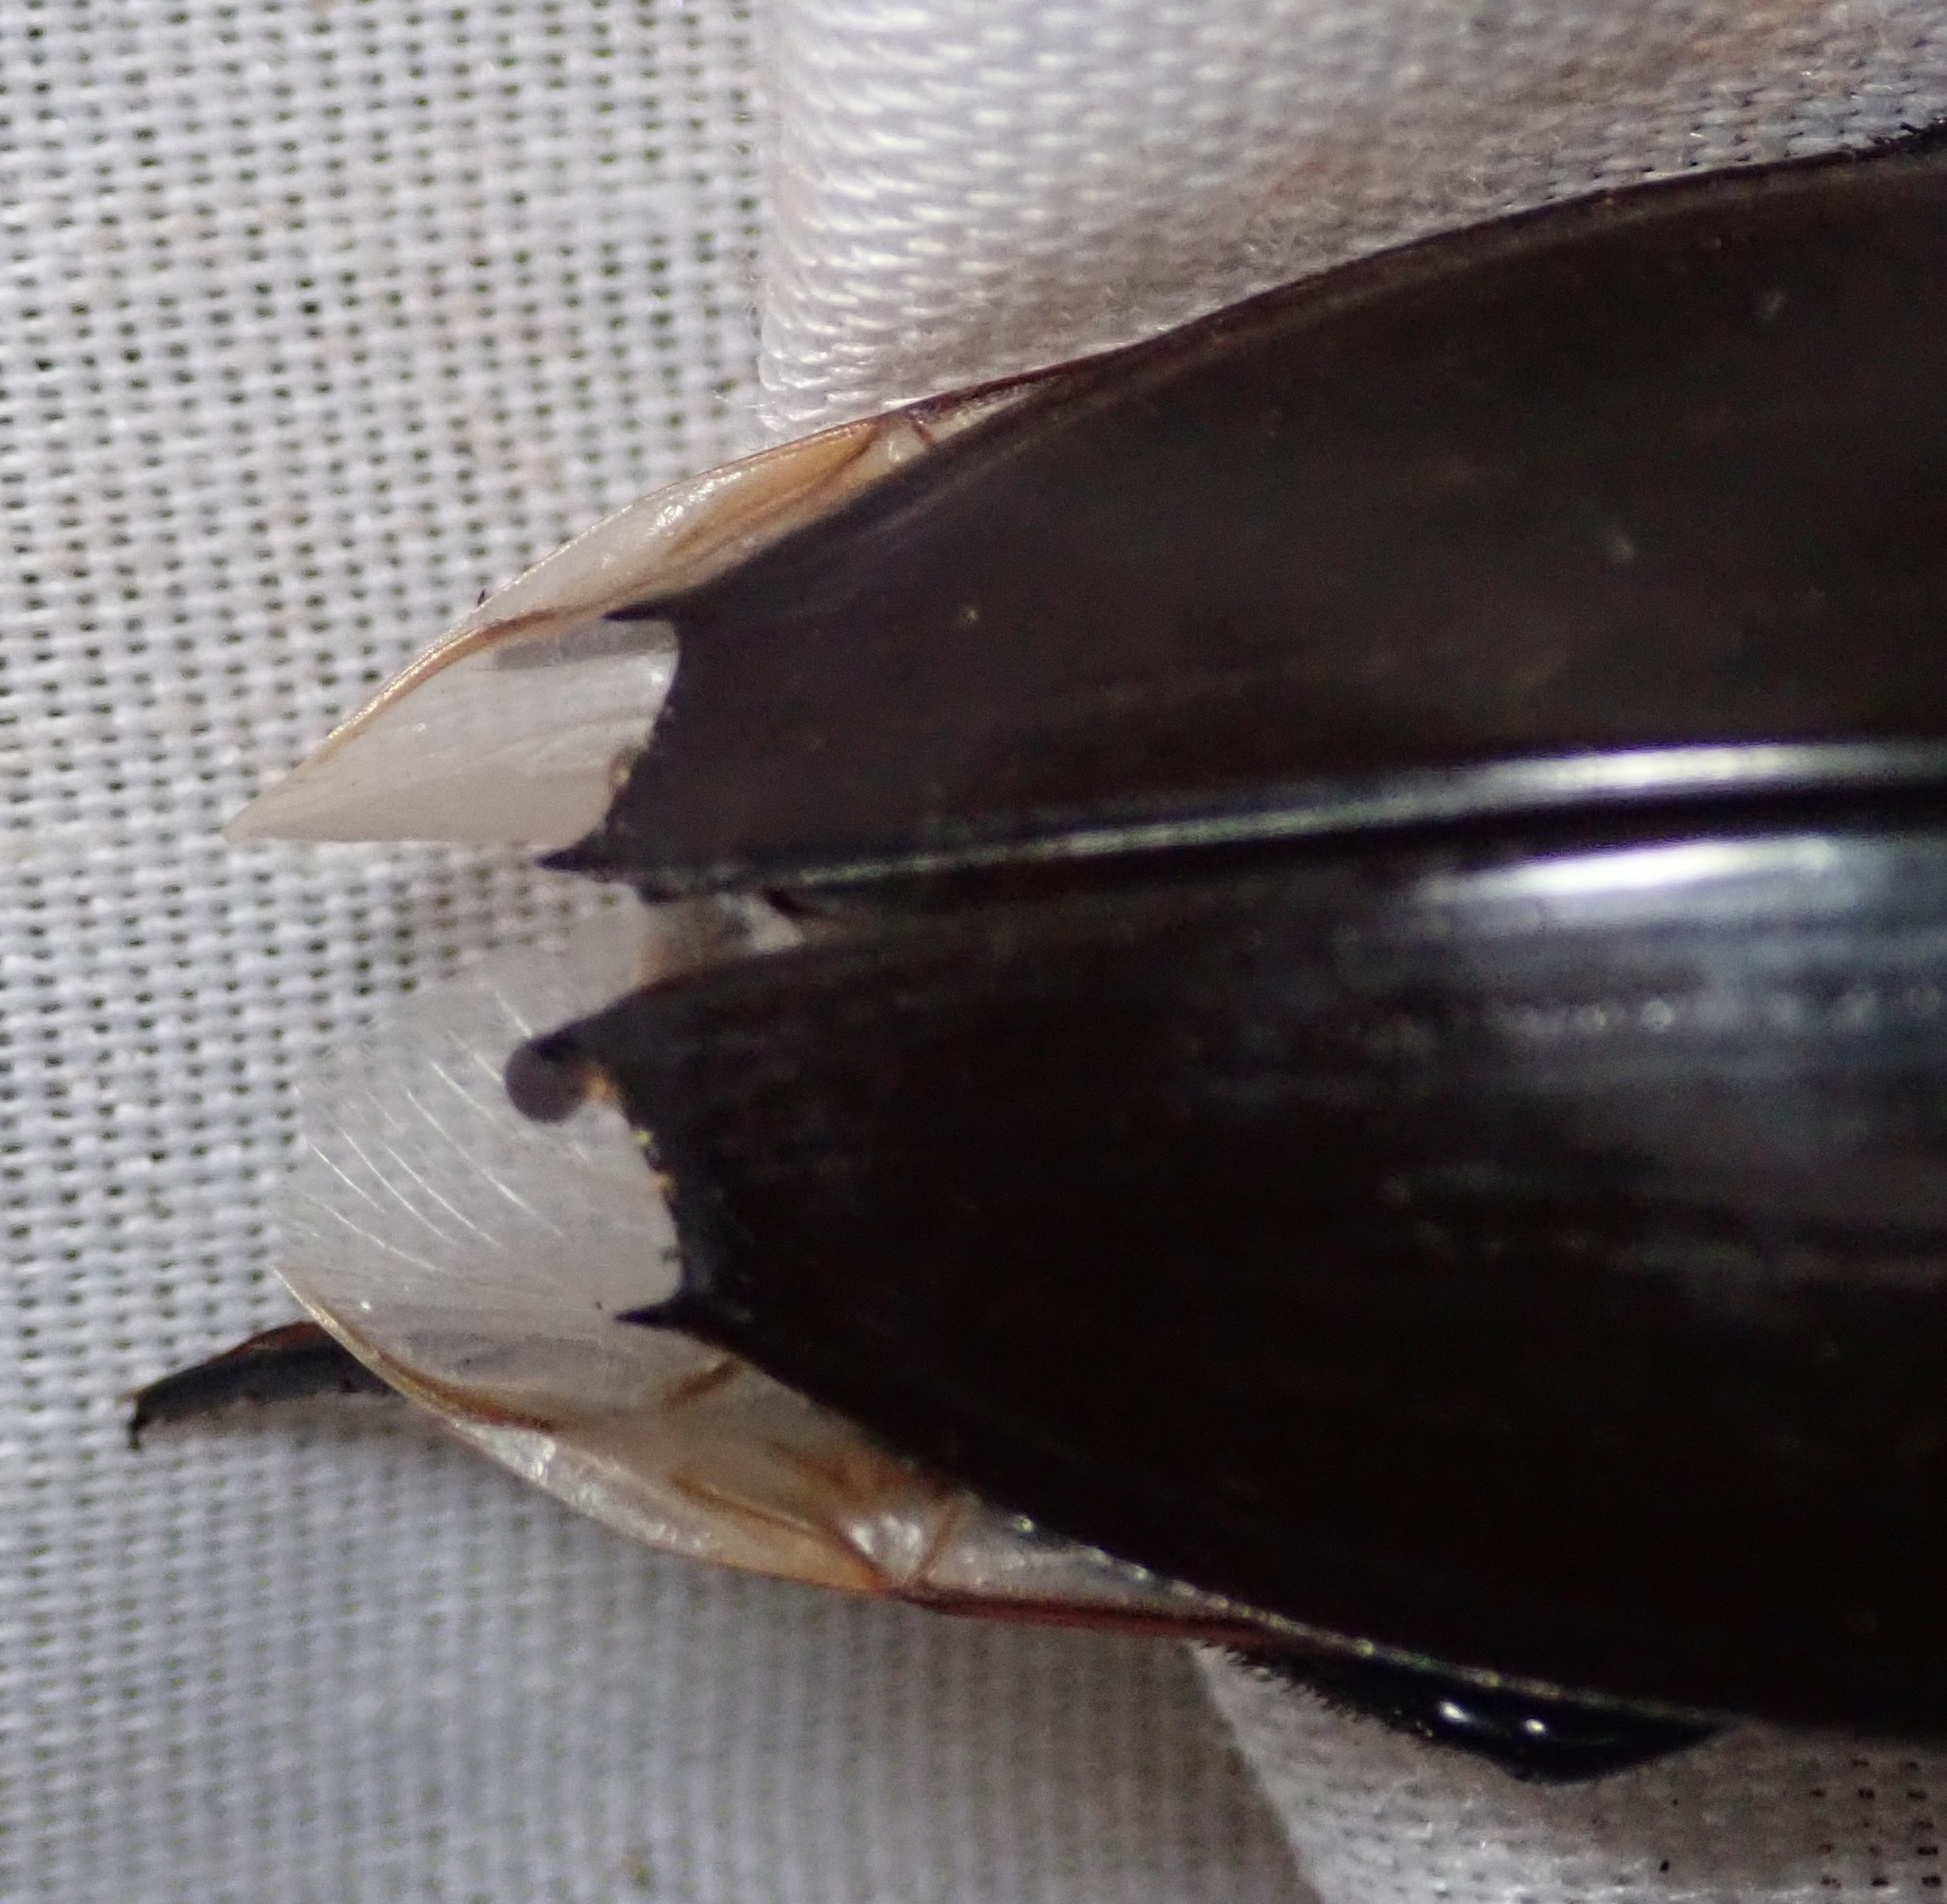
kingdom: Animalia
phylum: Arthropoda
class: Insecta
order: Coleoptera
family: Hydrophilidae
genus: Hydrophilus
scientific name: Hydrophilus aculeatus
